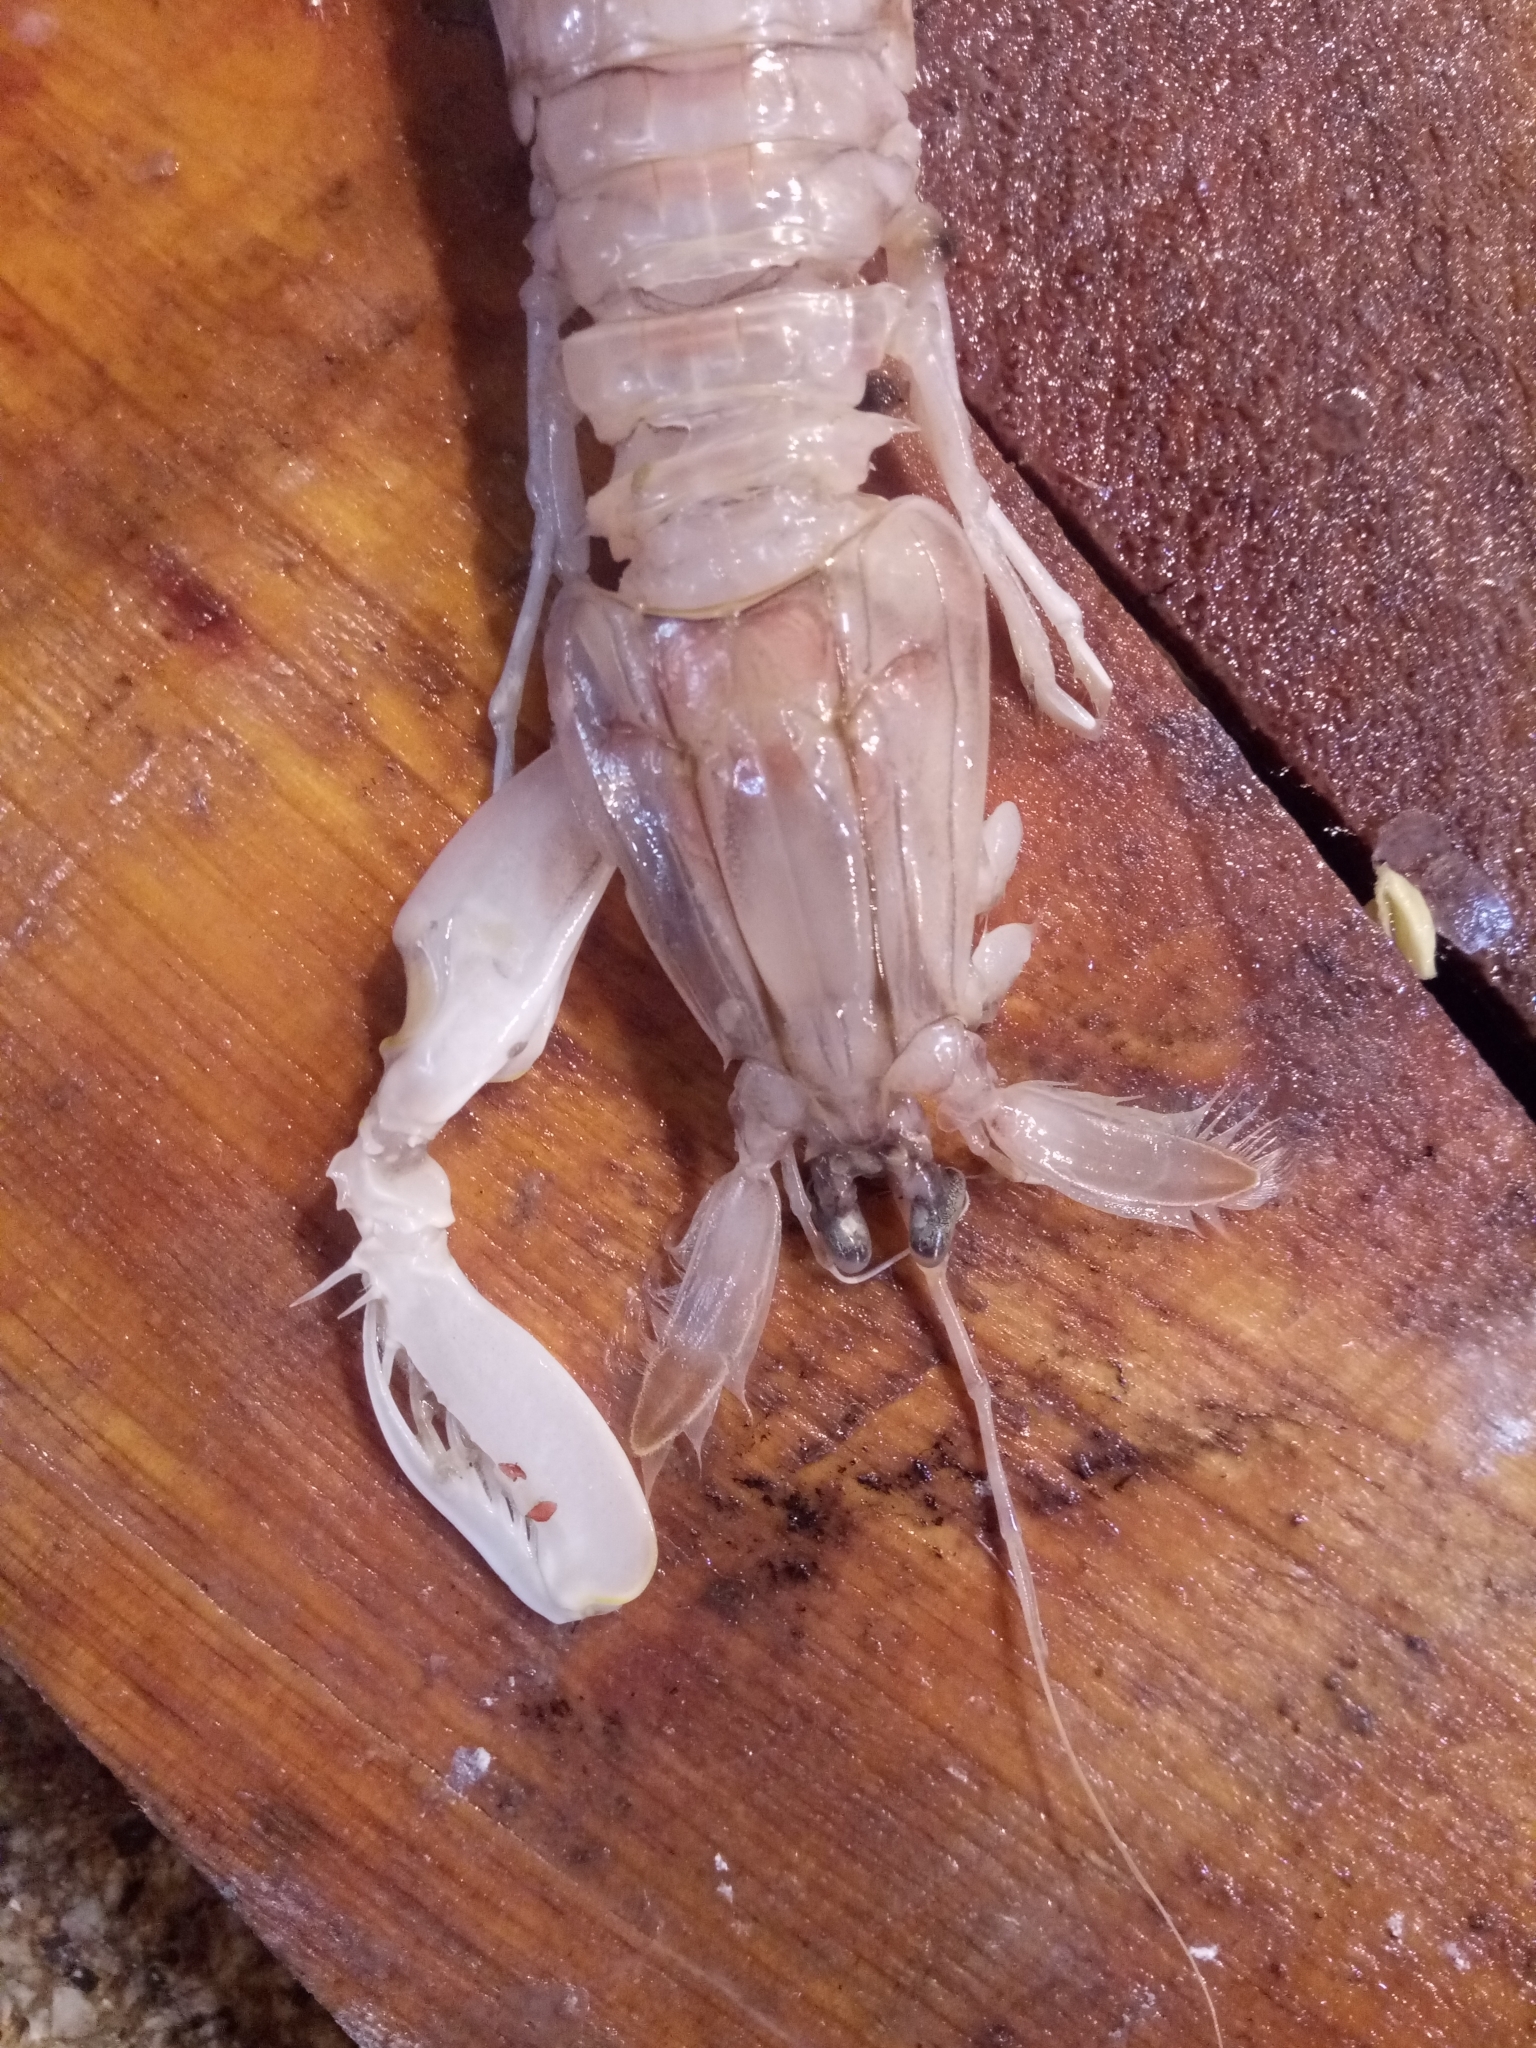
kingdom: Animalia
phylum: Arthropoda
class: Malacostraca
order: Stomatopoda
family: Squillidae
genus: Squilla
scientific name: Squilla mantis
